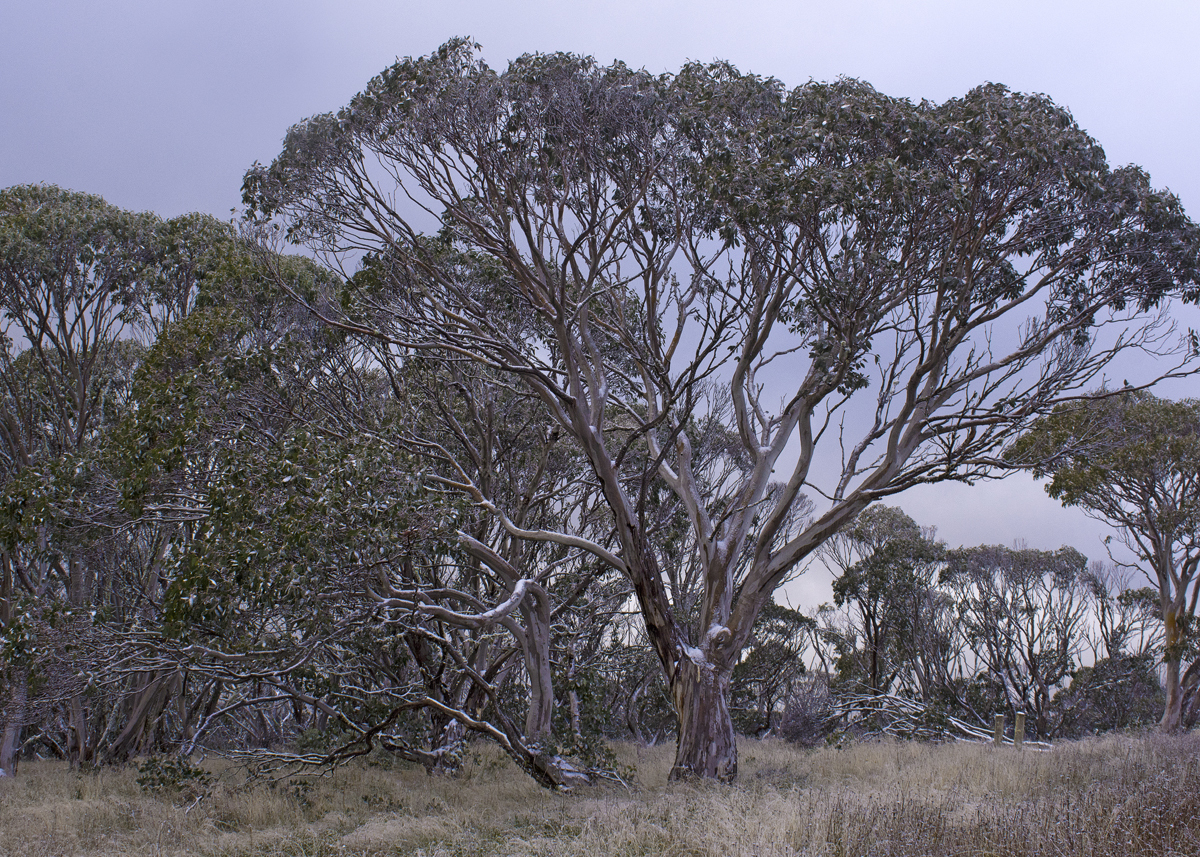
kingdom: Plantae
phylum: Tracheophyta
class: Magnoliopsida
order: Myrtales
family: Myrtaceae
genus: Eucalyptus
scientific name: Eucalyptus pauciflora
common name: Snow gum
